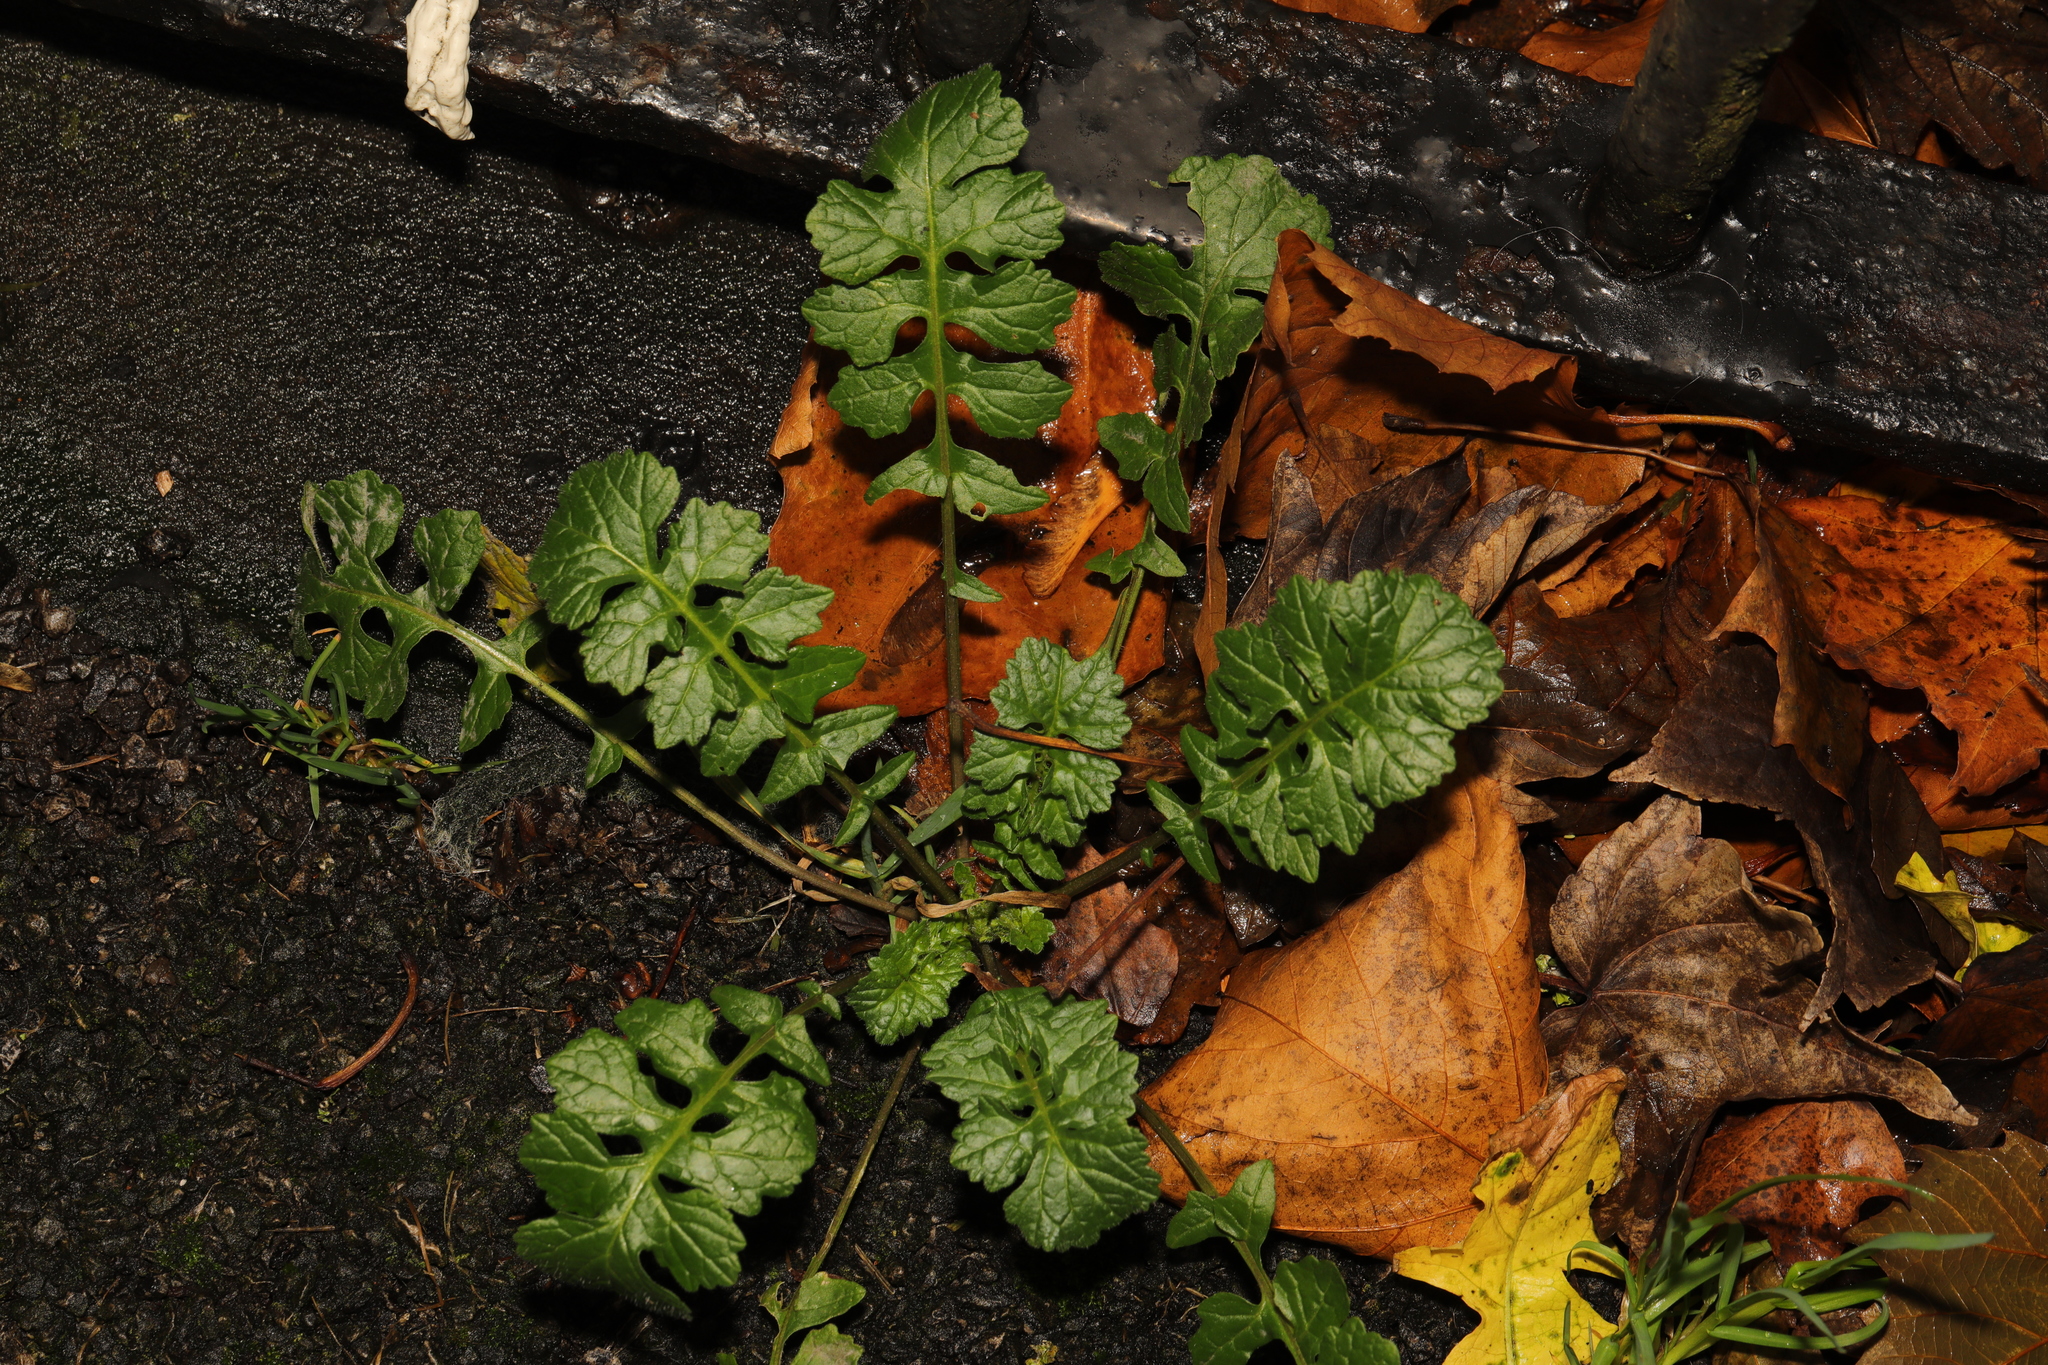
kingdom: Plantae
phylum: Tracheophyta
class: Magnoliopsida
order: Brassicales
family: Brassicaceae
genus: Sisymbrium
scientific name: Sisymbrium officinale
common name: Hedge mustard
